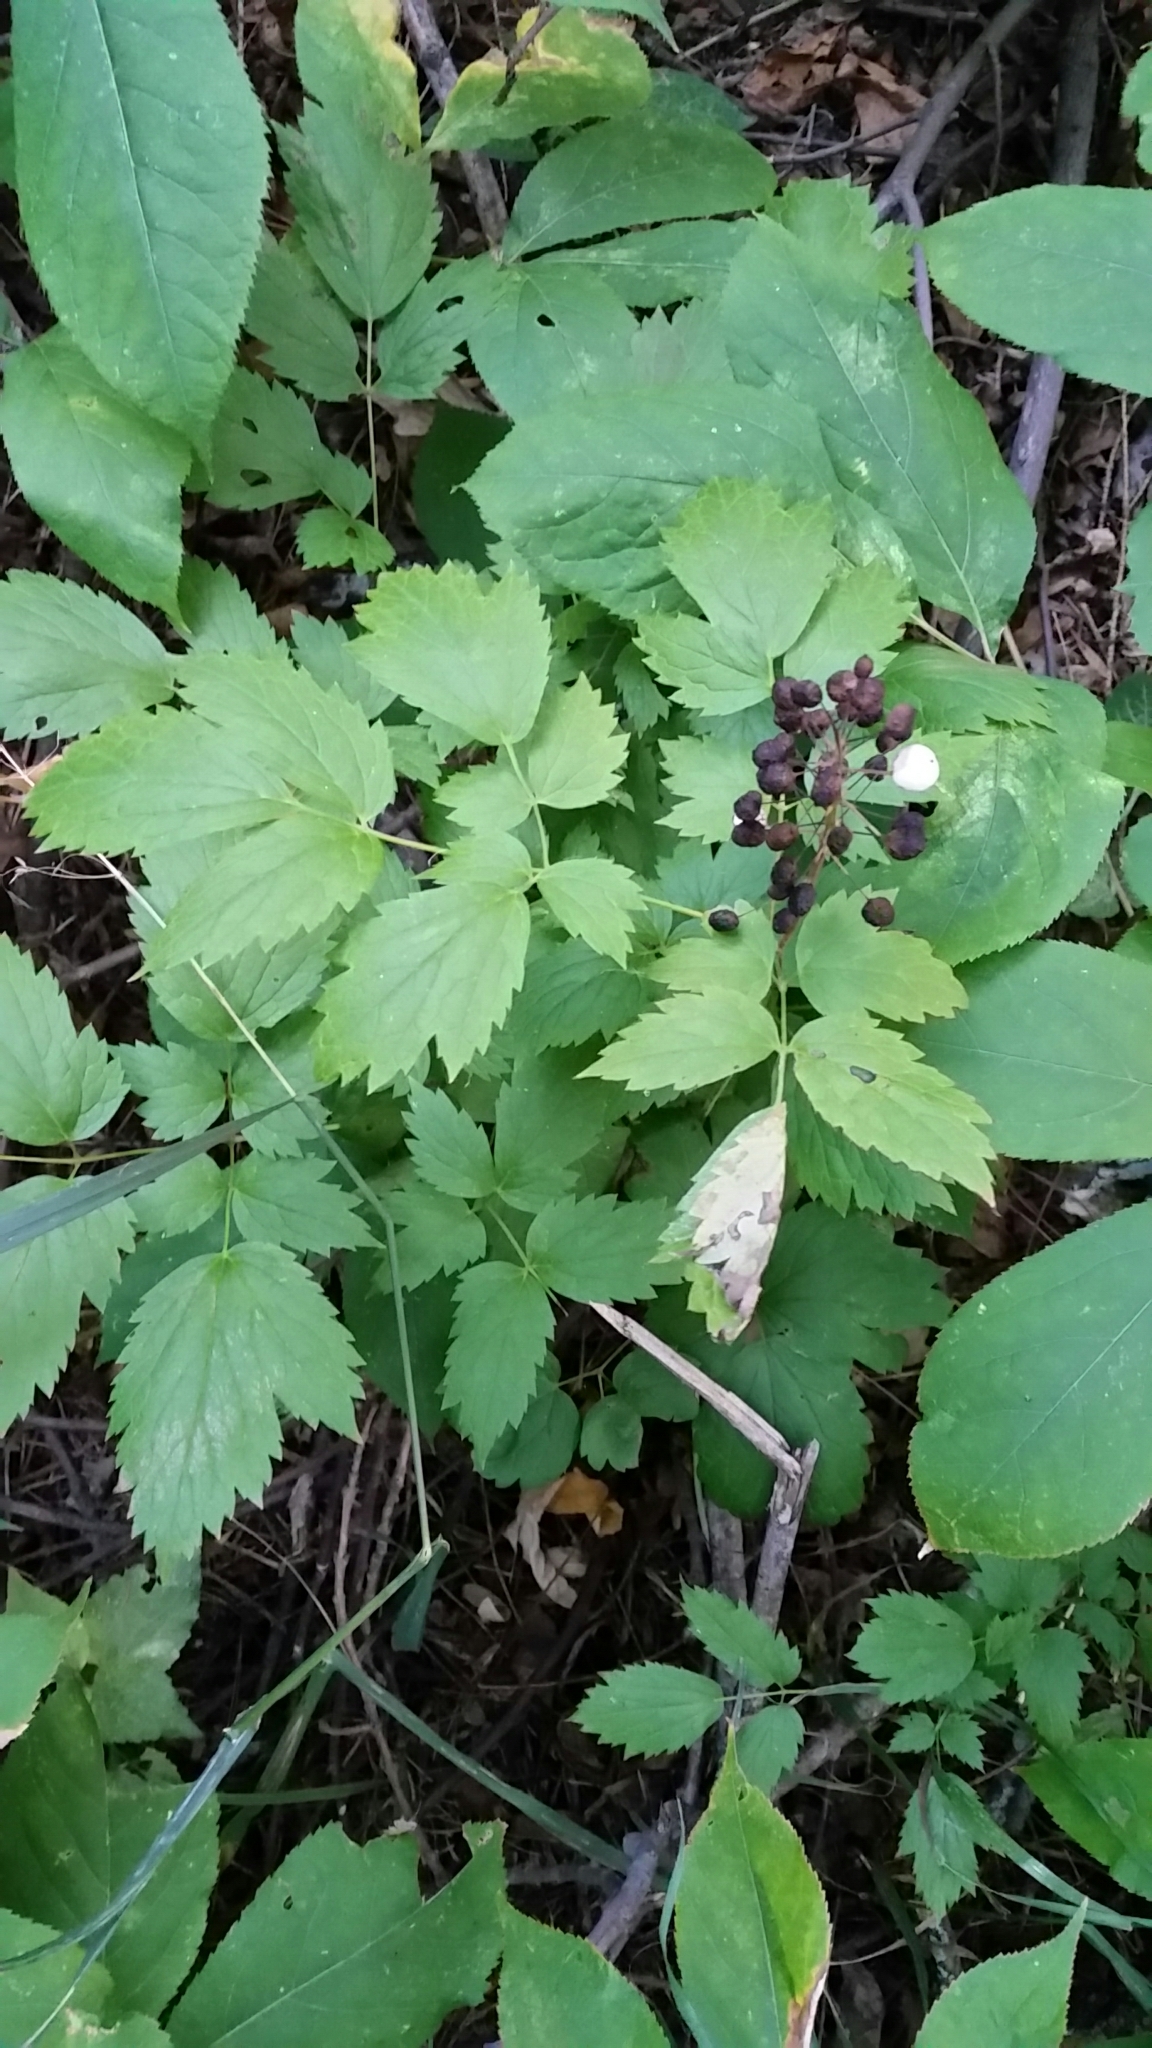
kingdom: Plantae
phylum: Tracheophyta
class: Magnoliopsida
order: Ranunculales
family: Ranunculaceae
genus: Actaea
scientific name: Actaea rubra
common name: Red baneberry
